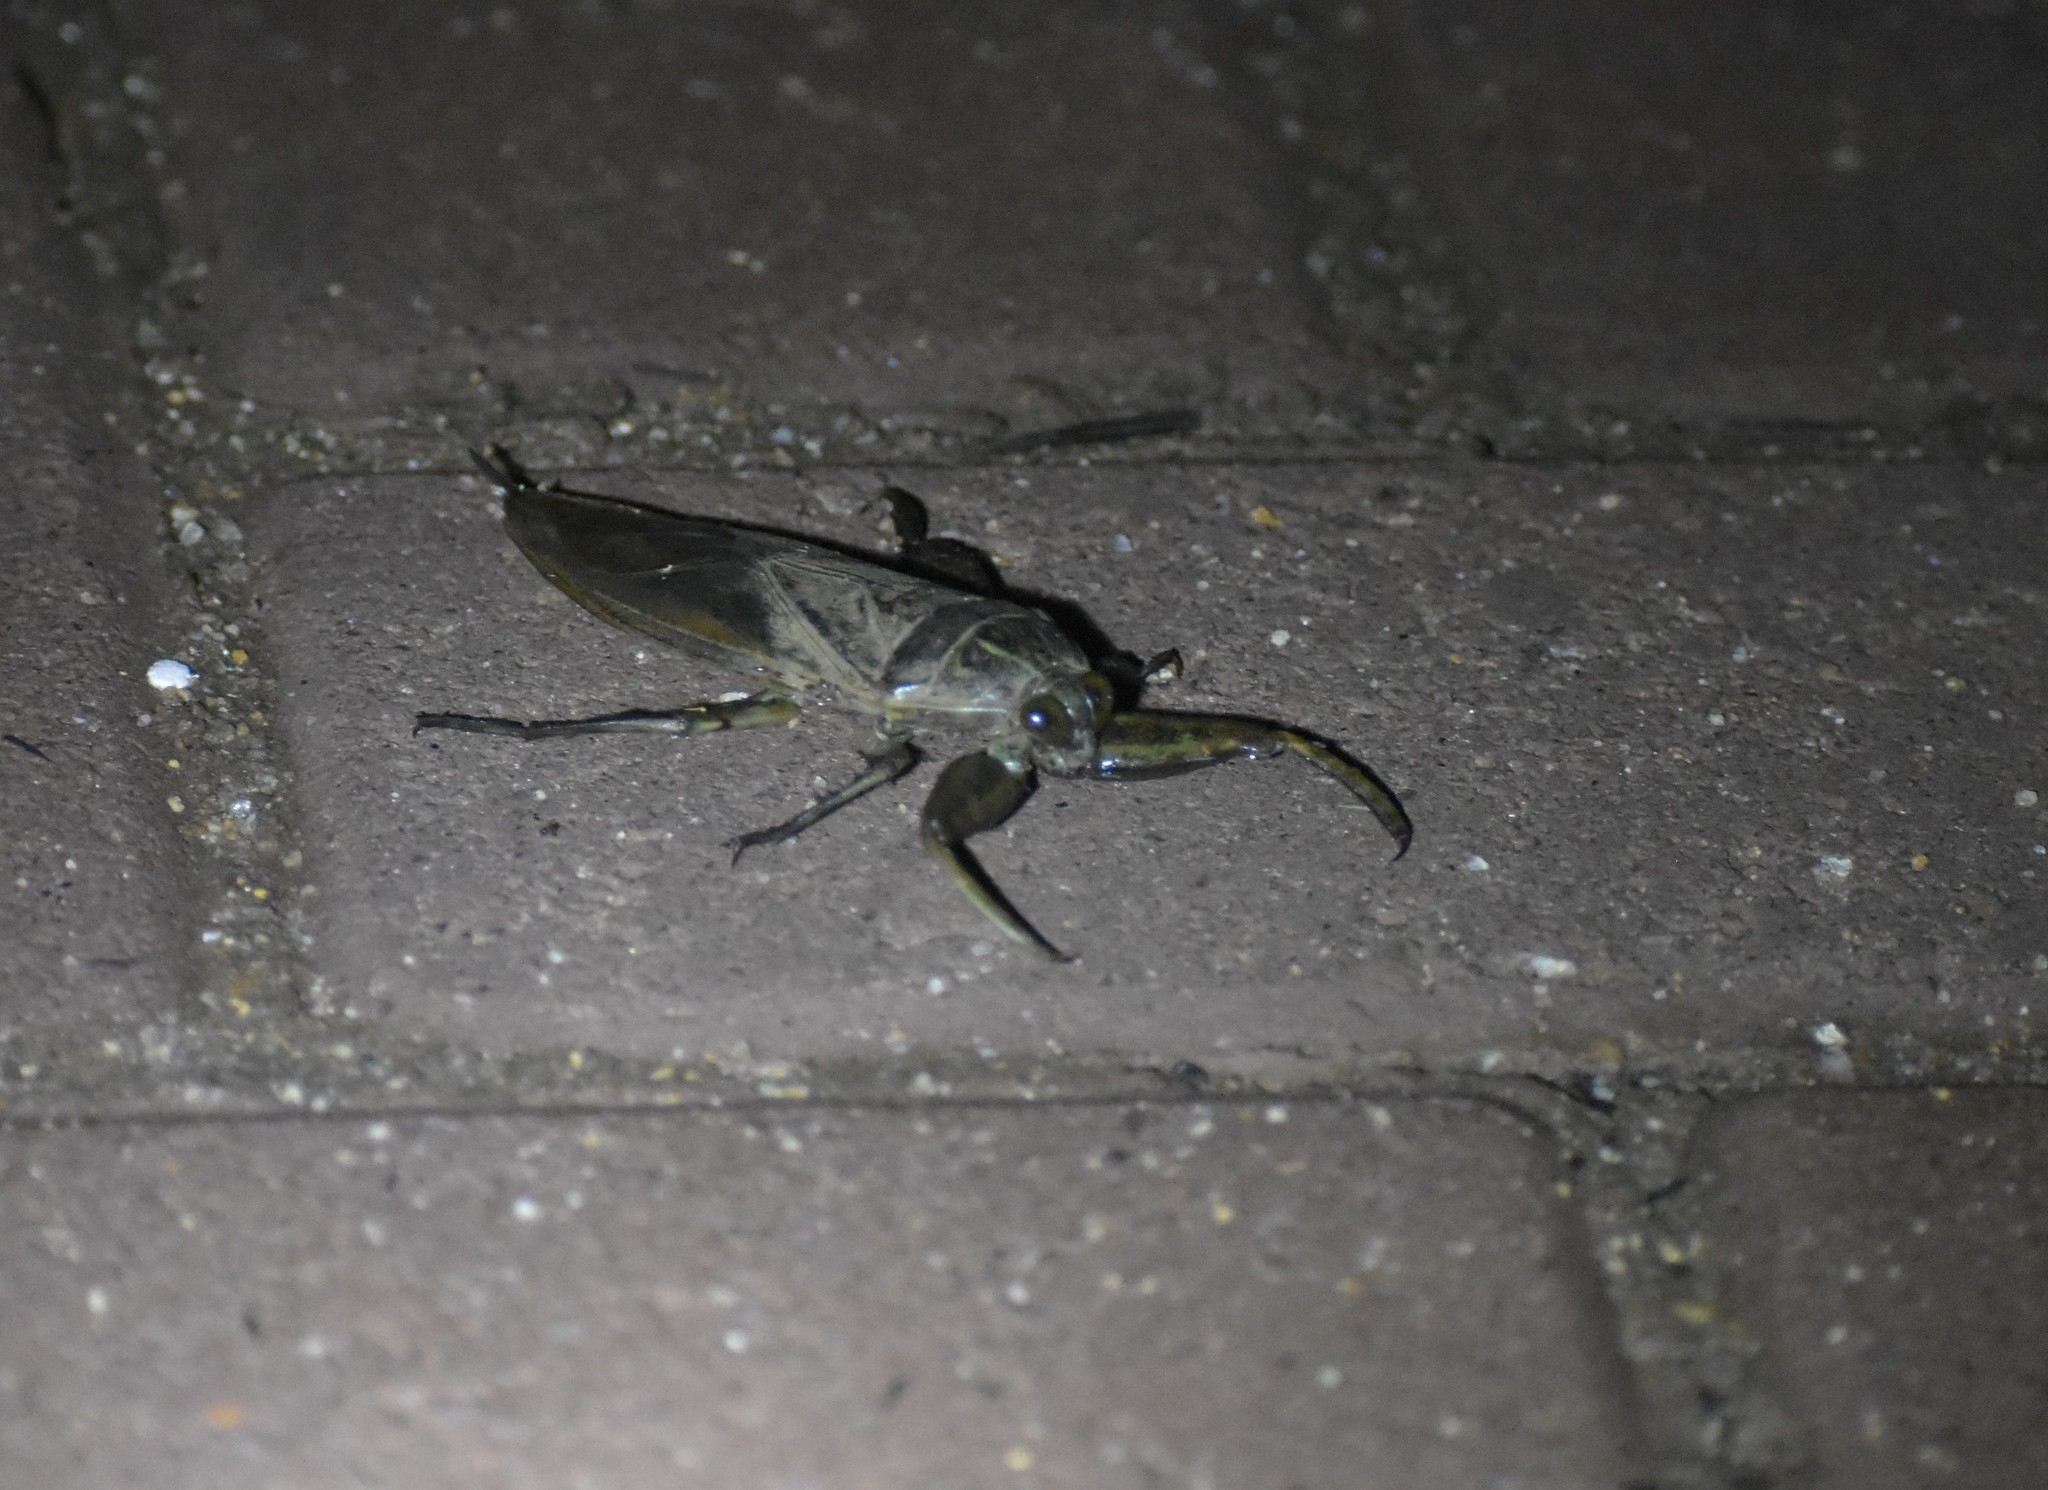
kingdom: Animalia
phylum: Arthropoda
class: Insecta
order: Hemiptera
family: Belostomatidae
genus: Lethocerus
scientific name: Lethocerus cordofanus
